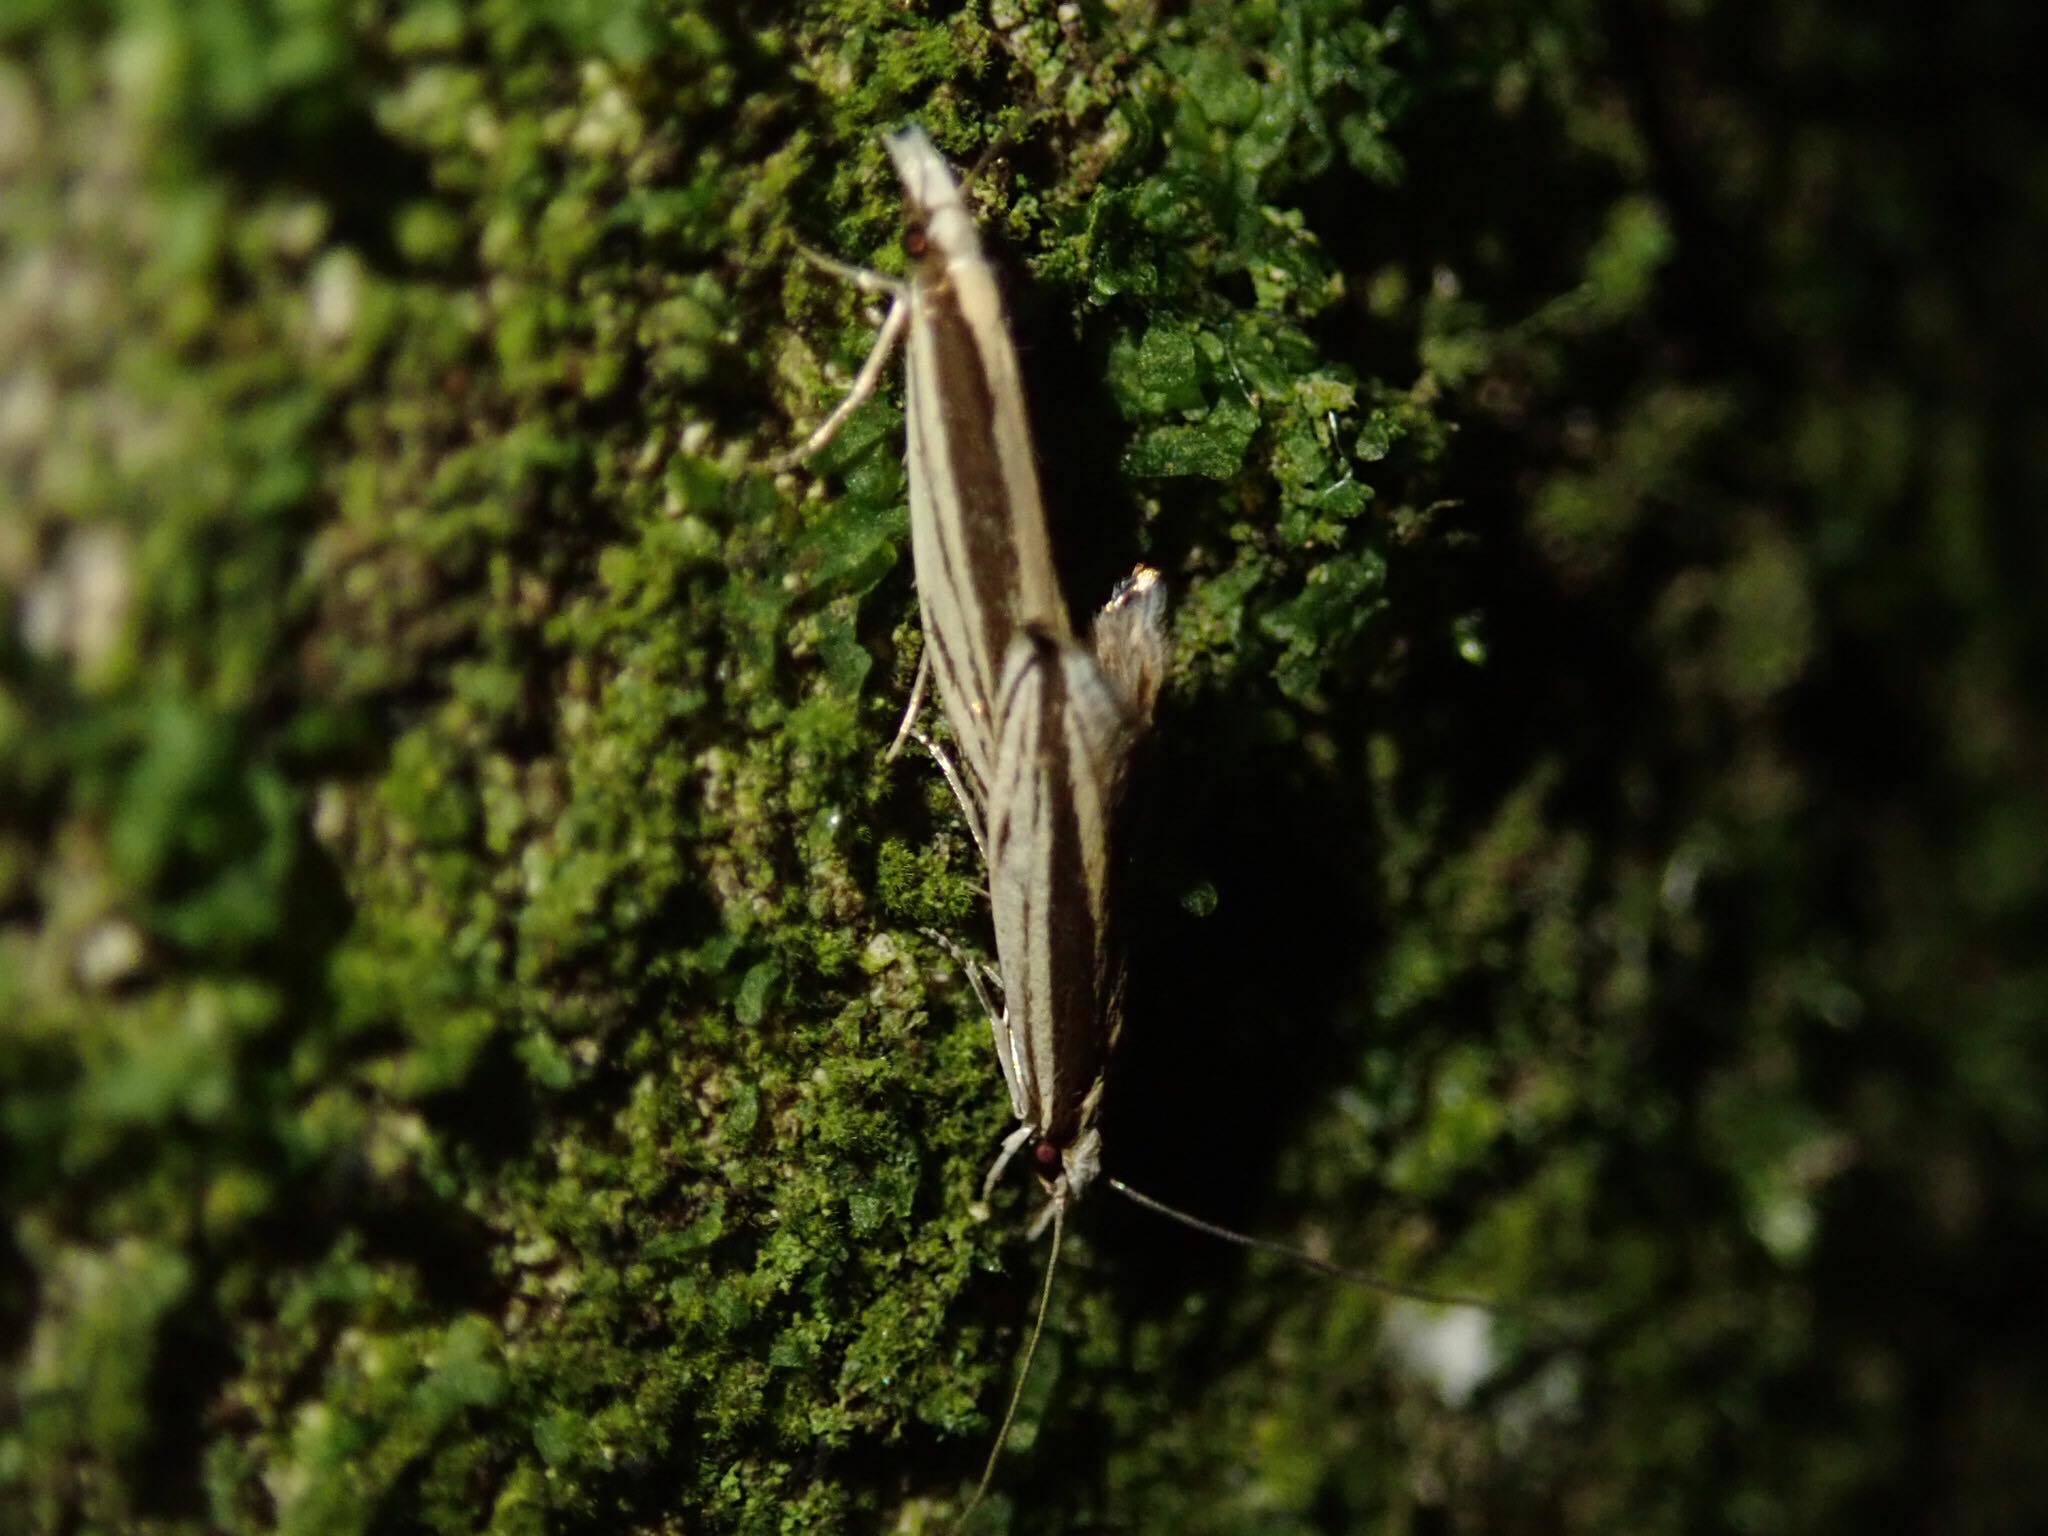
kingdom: Animalia
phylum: Arthropoda
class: Insecta
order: Lepidoptera
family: Tineidae
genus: Erechthias
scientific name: Erechthias stilbella
